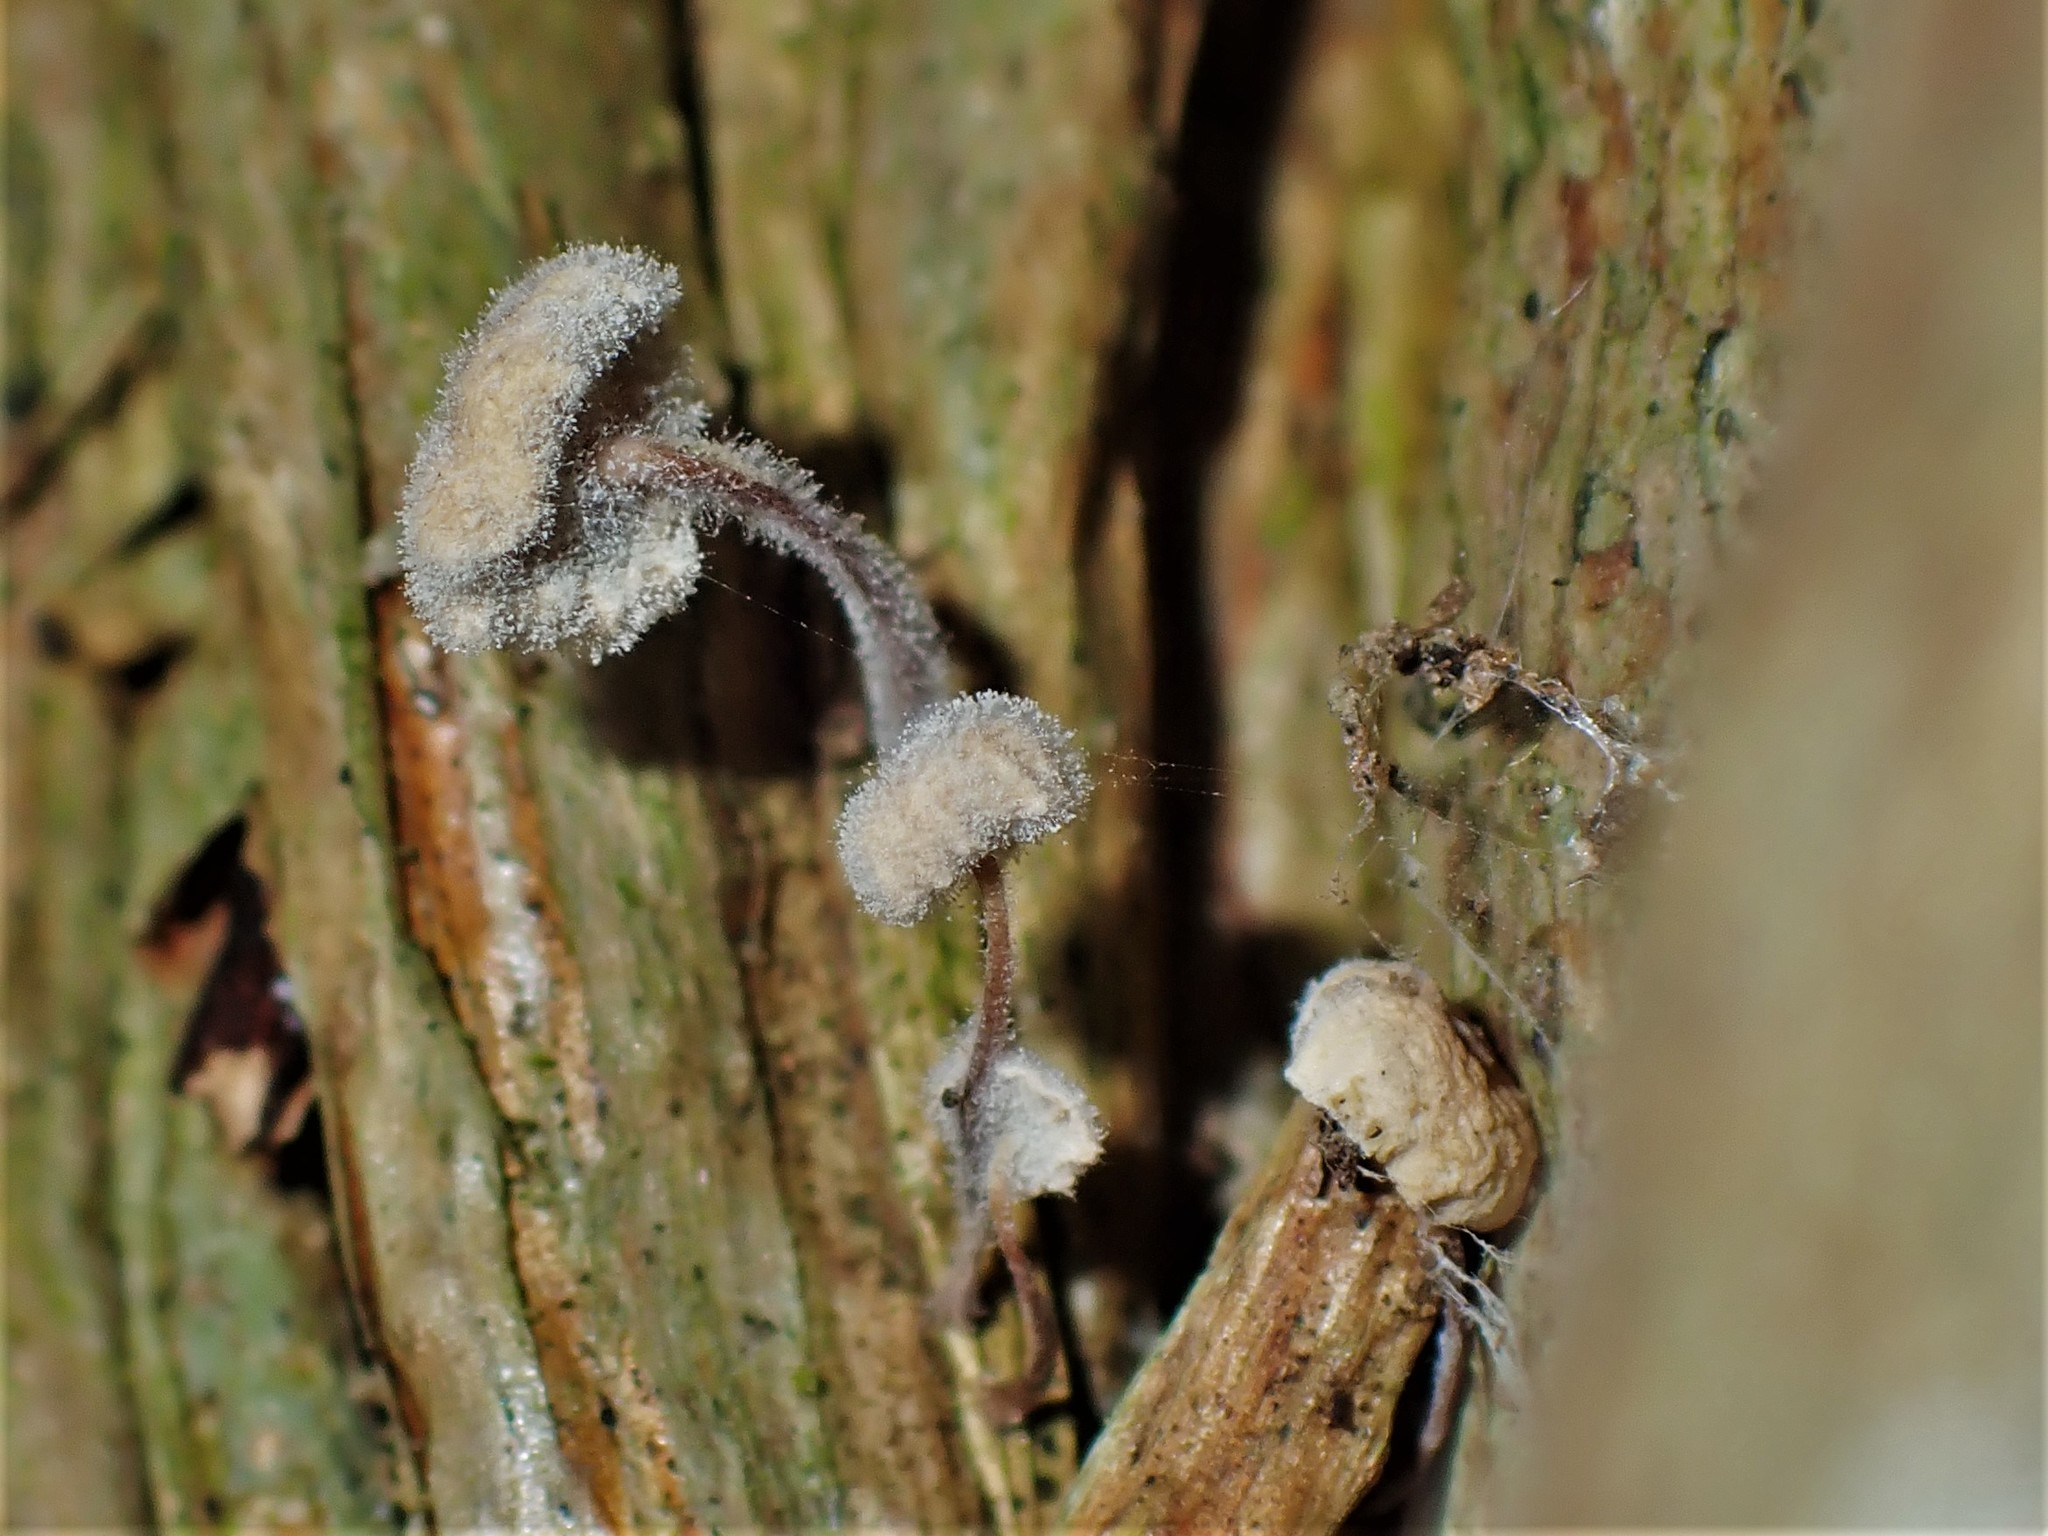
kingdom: Fungi
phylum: Ascomycota
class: Eurotiomycetes
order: Eurotiales
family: Aspergillaceae
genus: Penicillium
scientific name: Penicillium
